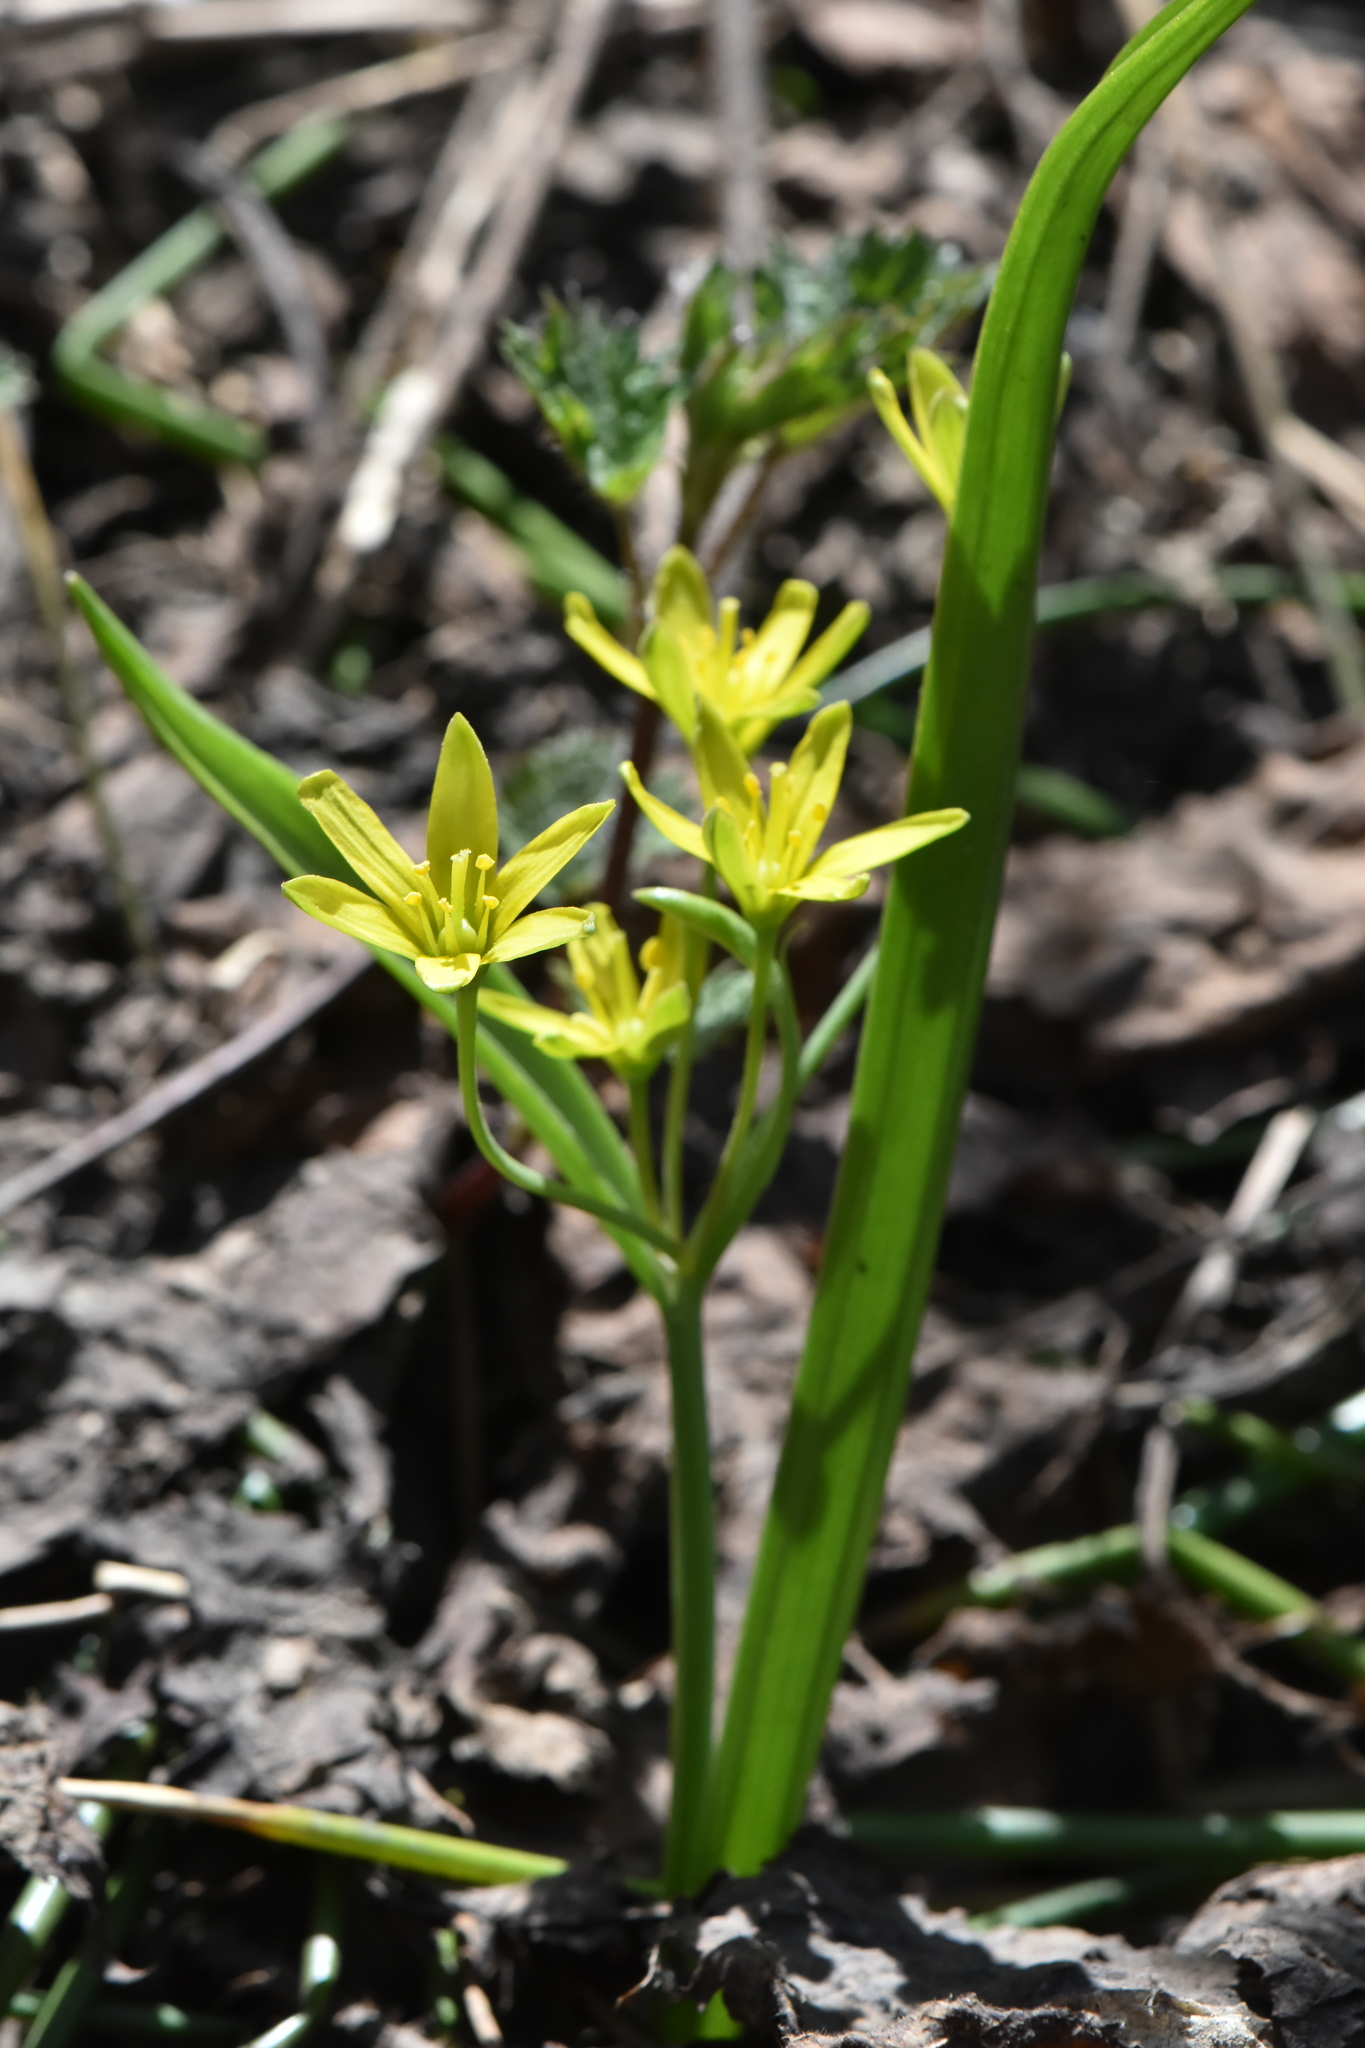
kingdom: Plantae
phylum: Tracheophyta
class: Liliopsida
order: Liliales
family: Liliaceae
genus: Gagea
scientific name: Gagea lutea
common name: Yellow star-of-bethlehem
